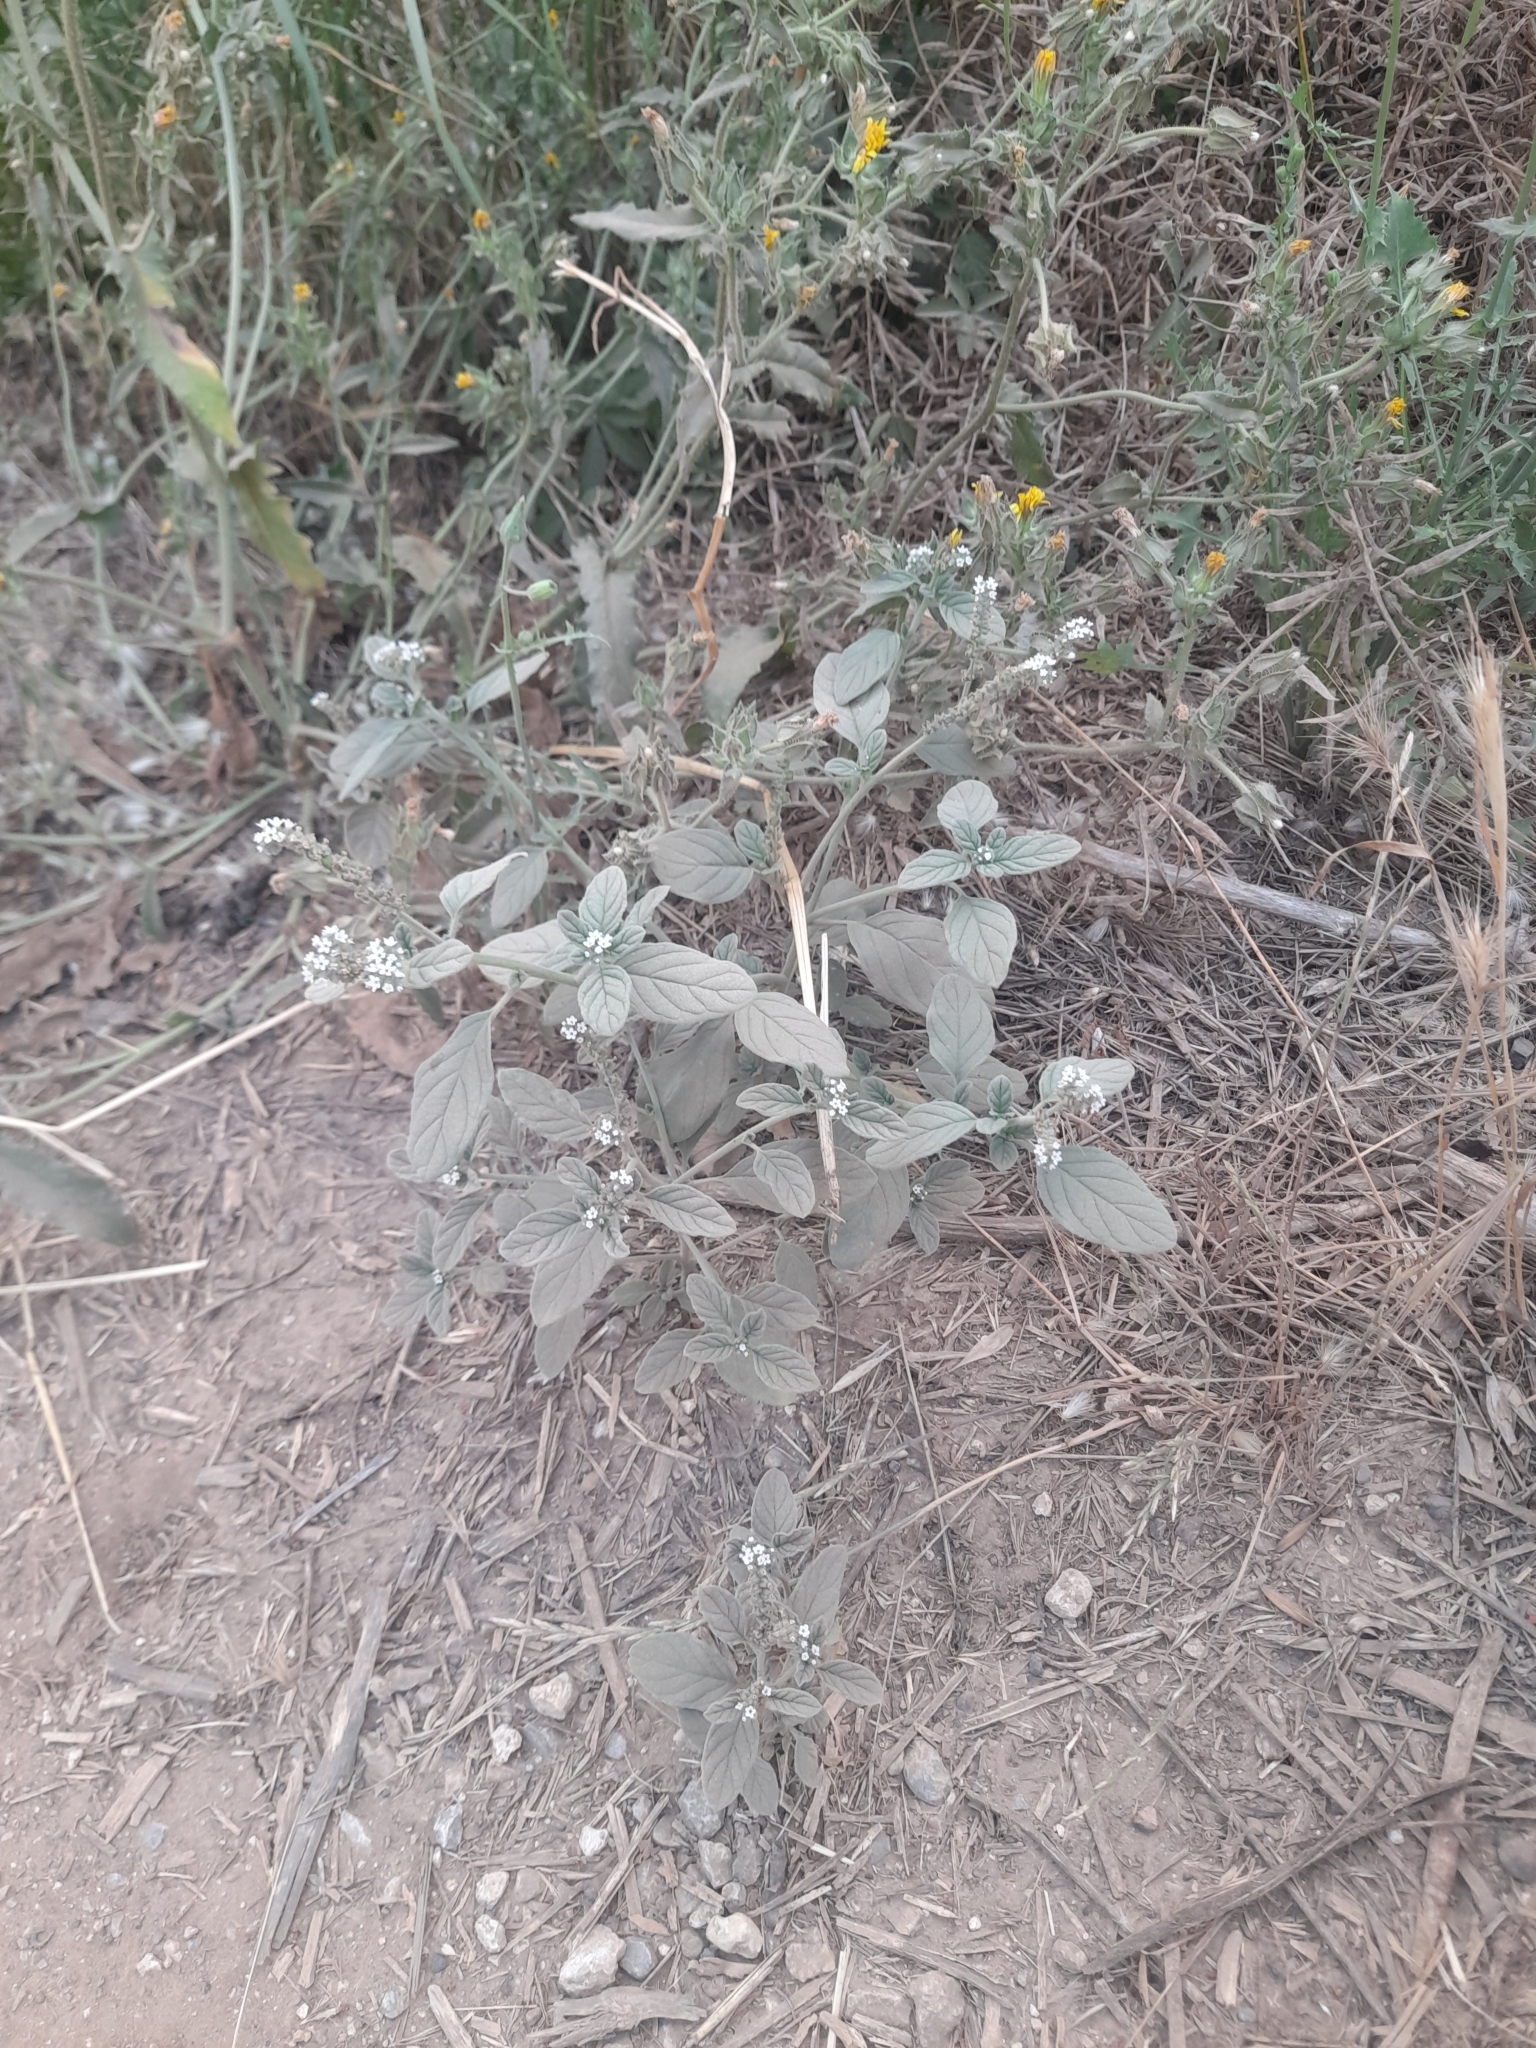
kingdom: Plantae
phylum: Tracheophyta
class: Magnoliopsida
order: Boraginales
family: Heliotropiaceae
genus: Heliotropium
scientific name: Heliotropium europaeum
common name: European heliotrope
